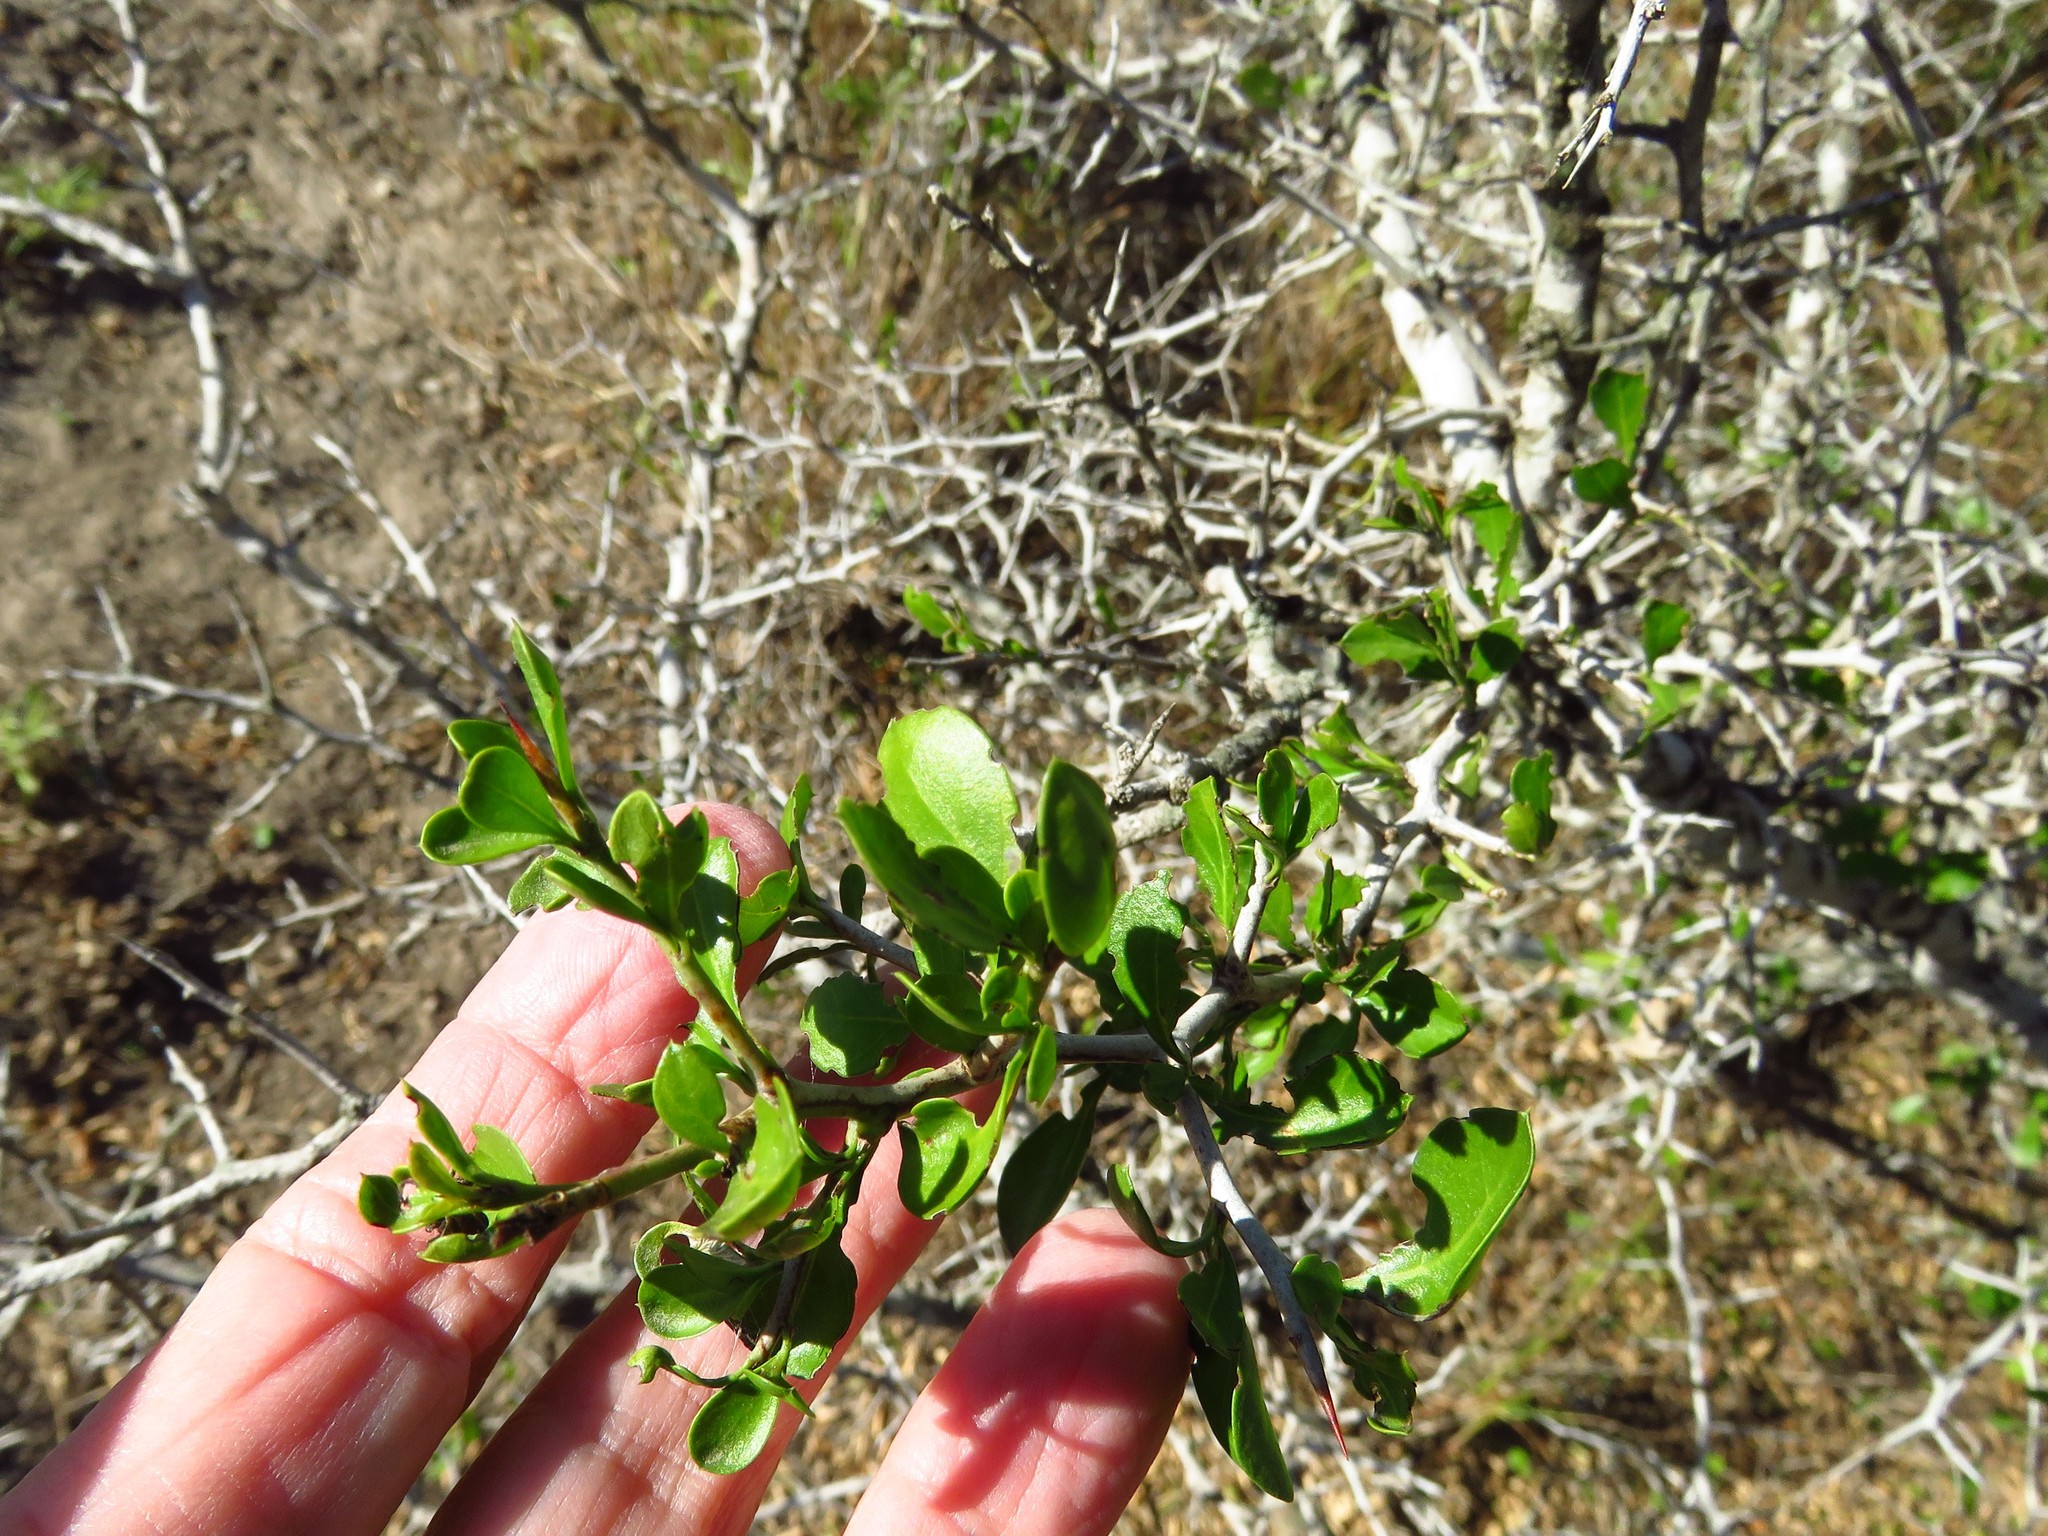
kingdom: Plantae
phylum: Tracheophyta
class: Magnoliopsida
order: Rosales
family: Rhamnaceae
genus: Condalia
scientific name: Condalia hookeri
